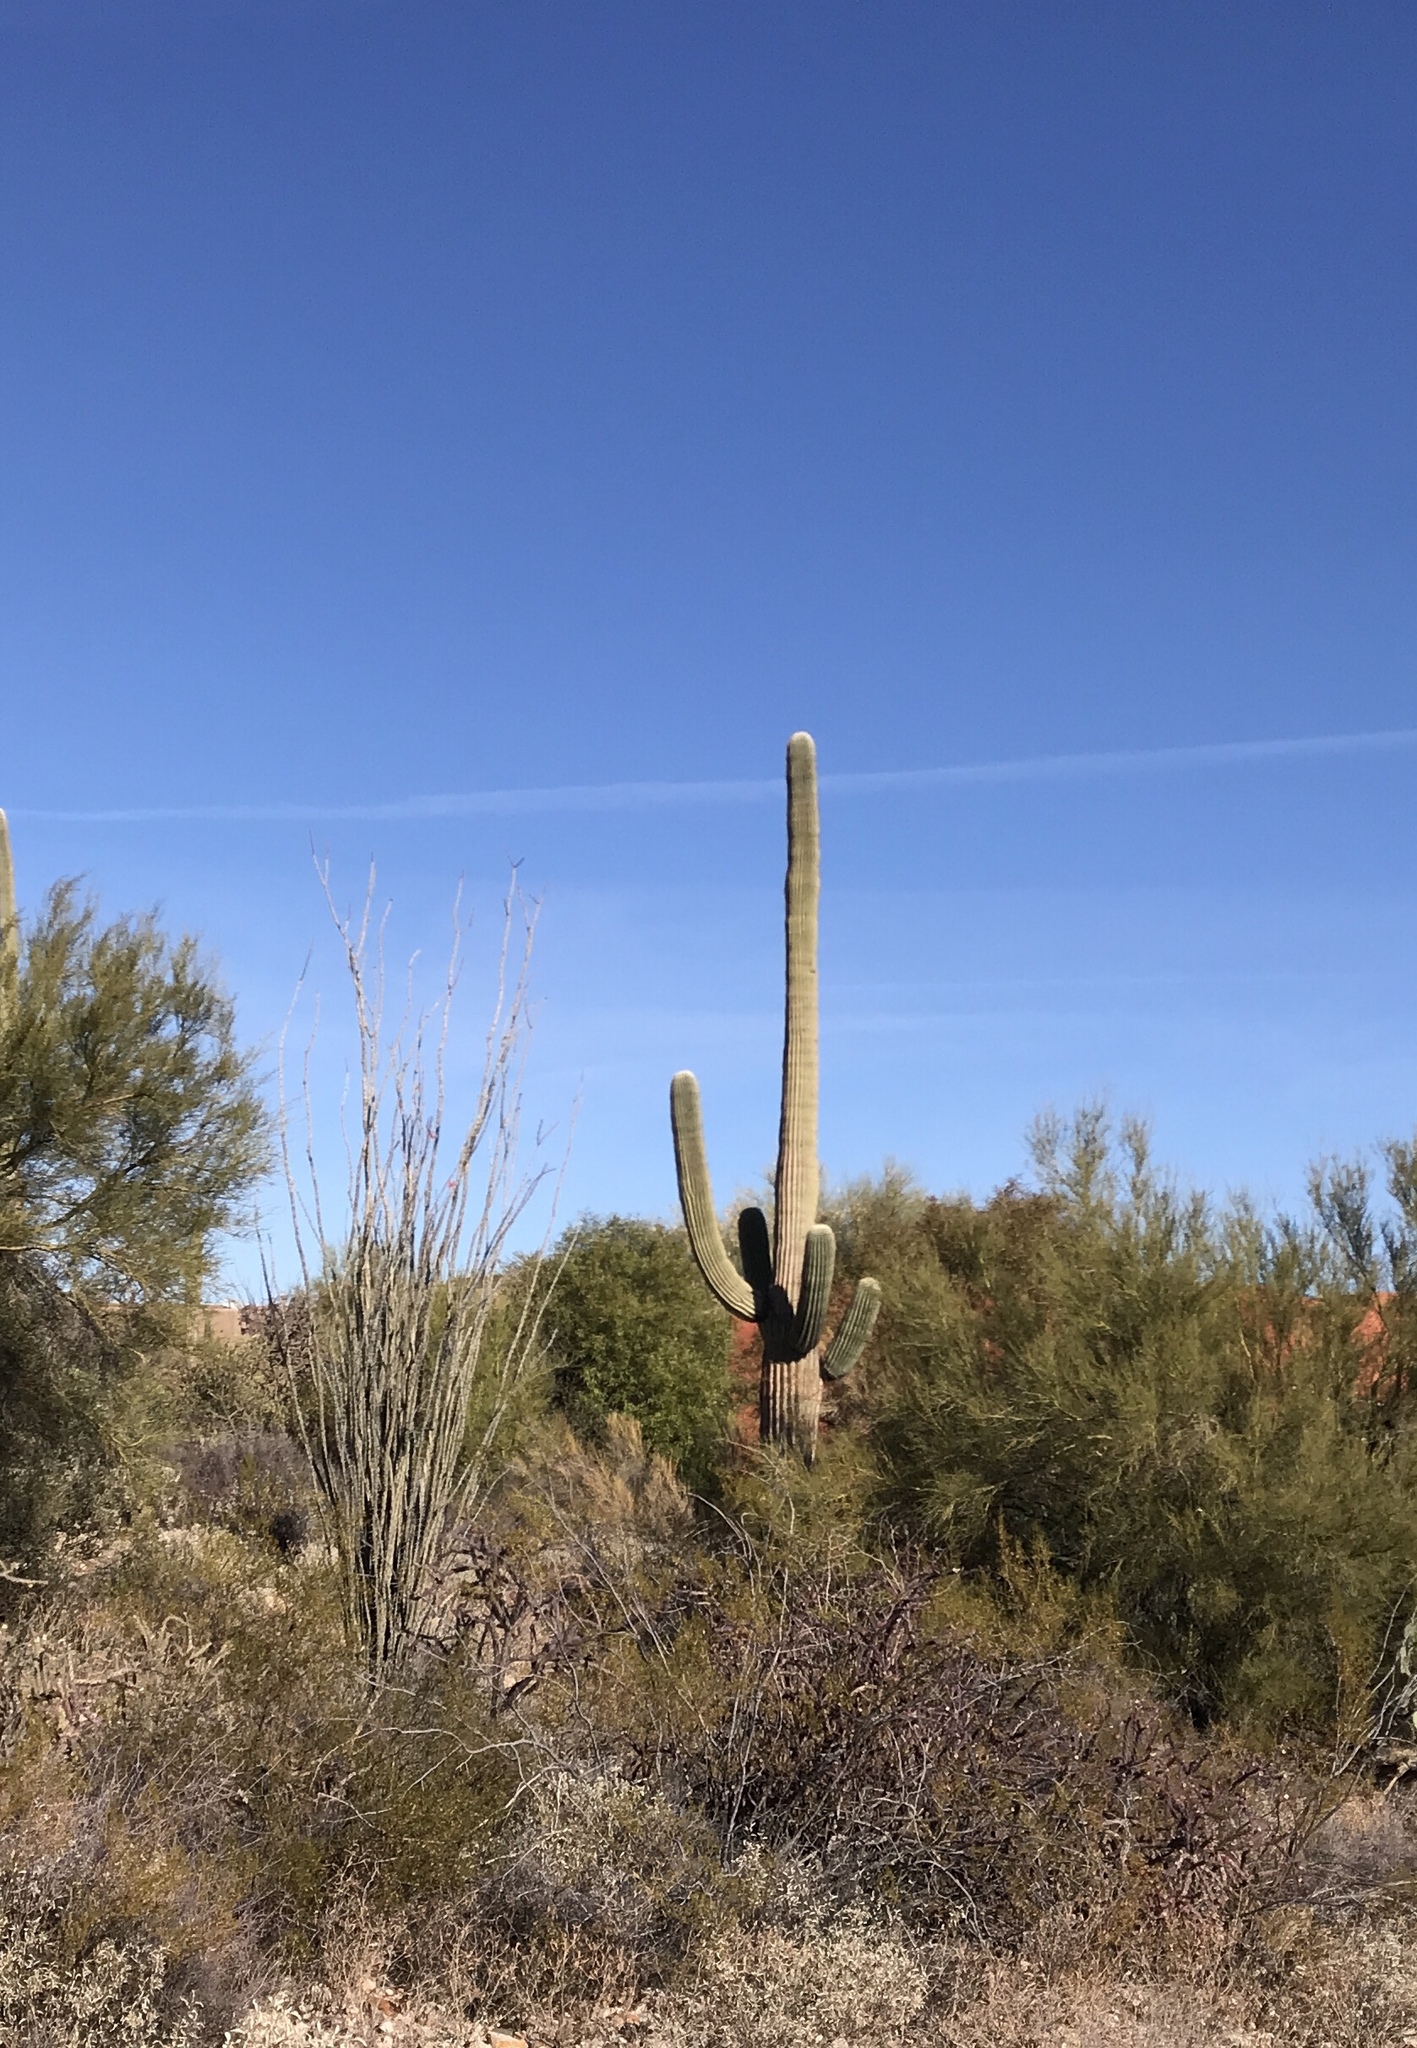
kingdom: Plantae
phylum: Tracheophyta
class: Magnoliopsida
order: Caryophyllales
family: Cactaceae
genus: Carnegiea
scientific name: Carnegiea gigantea
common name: Saguaro
